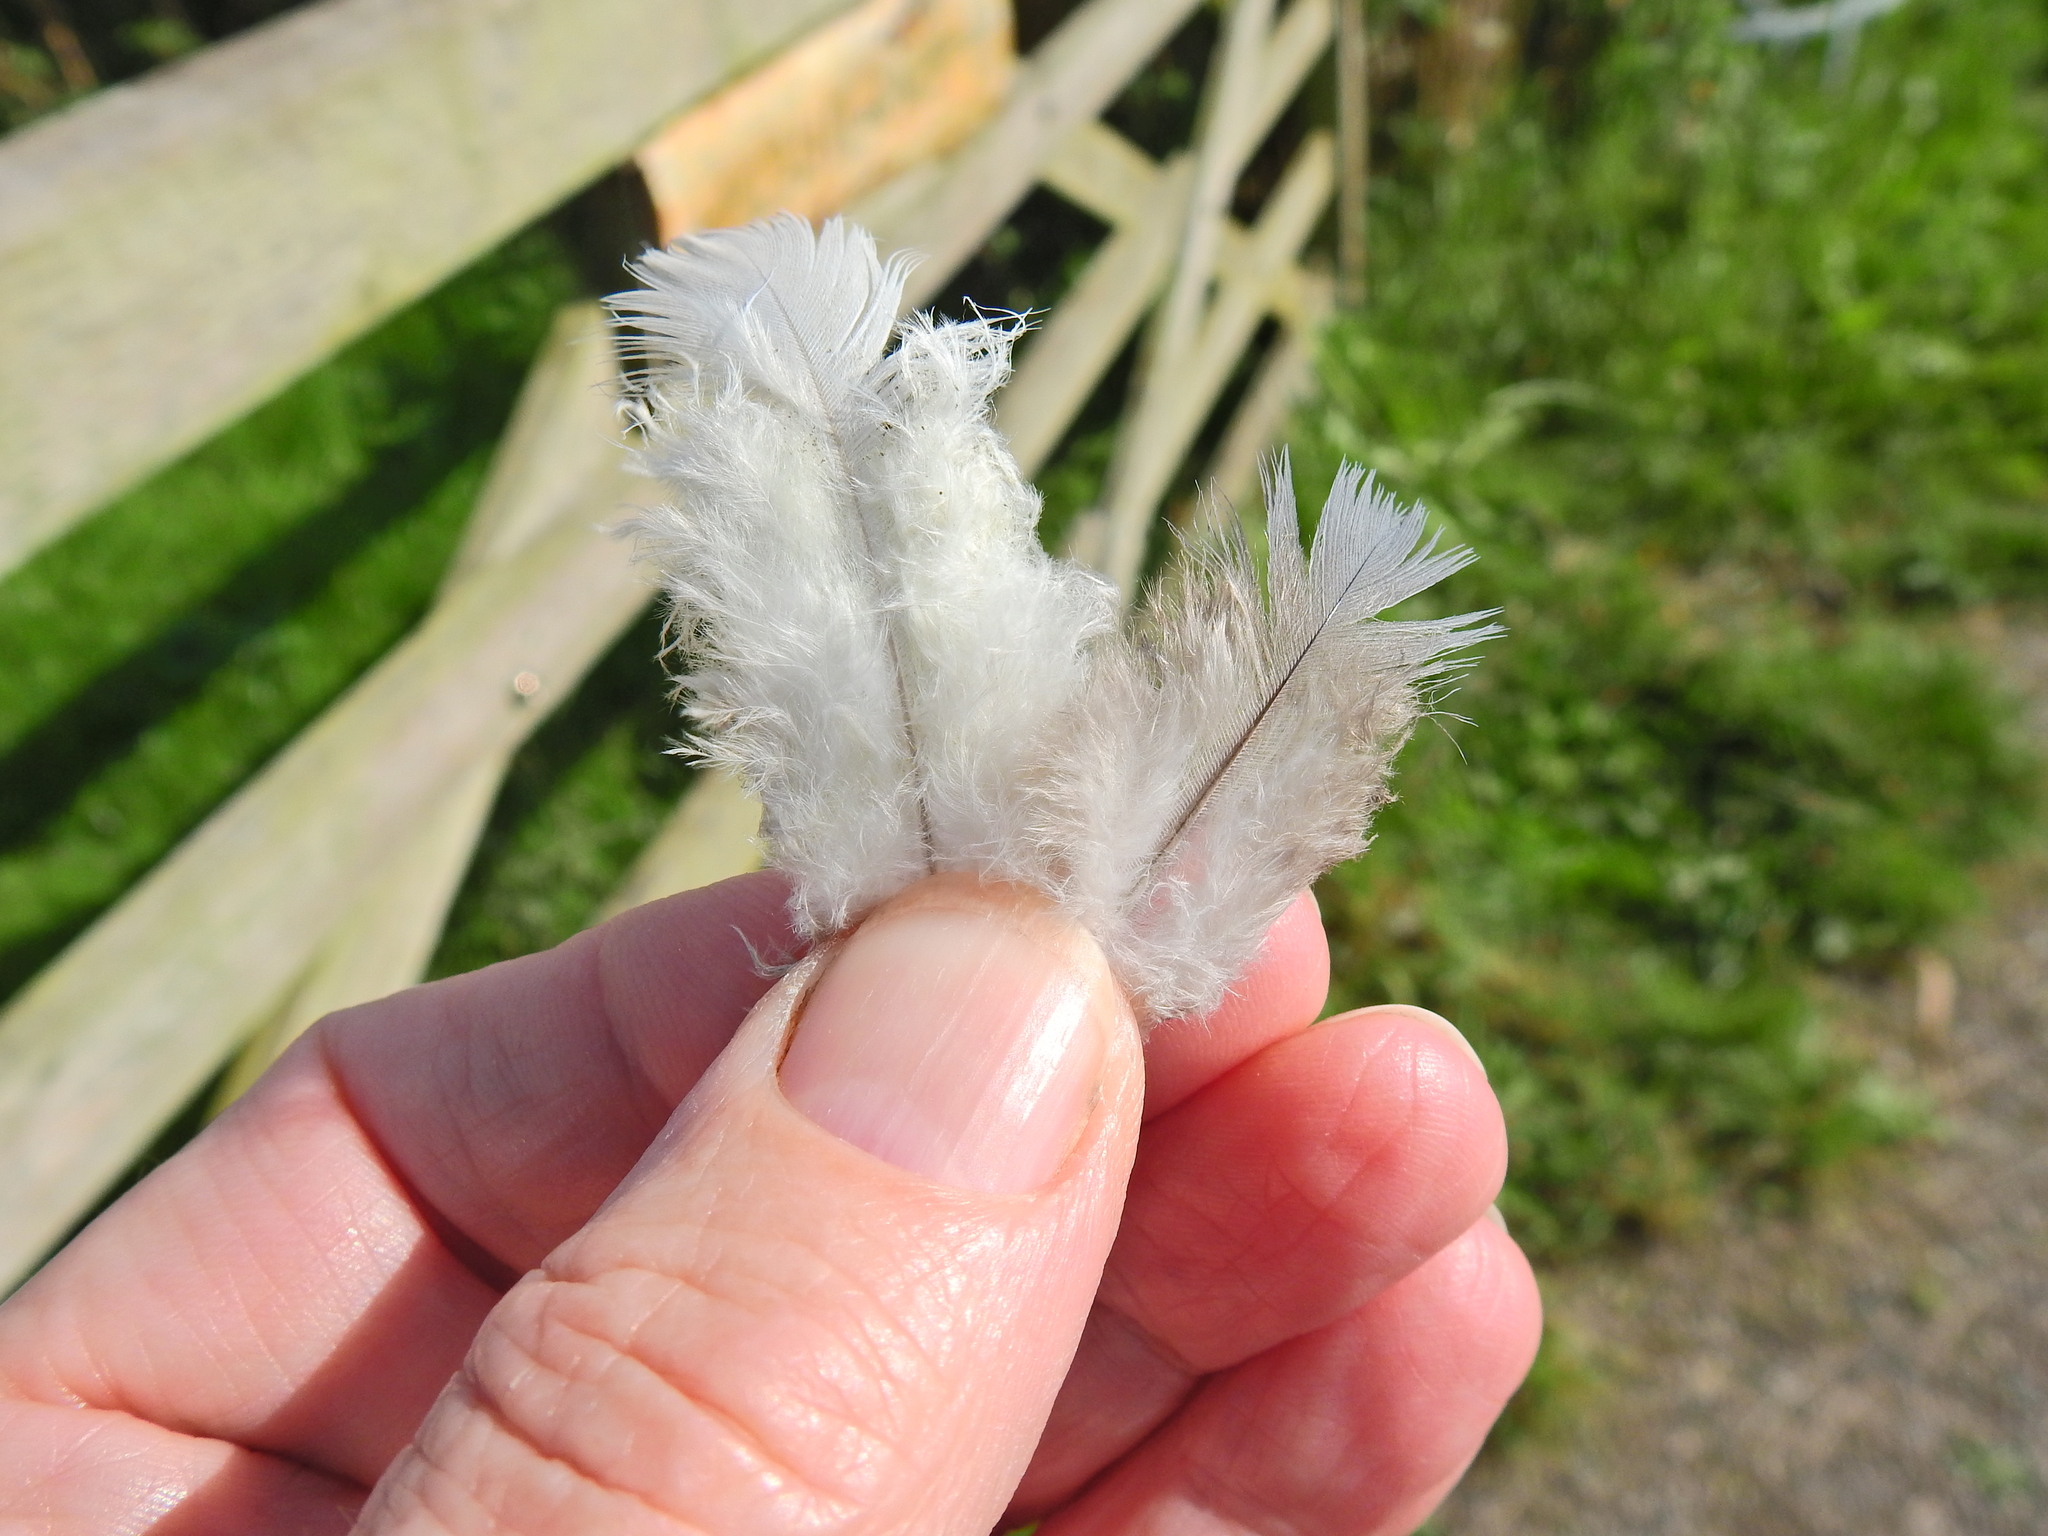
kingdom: Animalia
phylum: Chordata
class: Aves
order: Columbiformes
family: Columbidae
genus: Columba
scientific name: Columba palumbus
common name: Common wood pigeon
